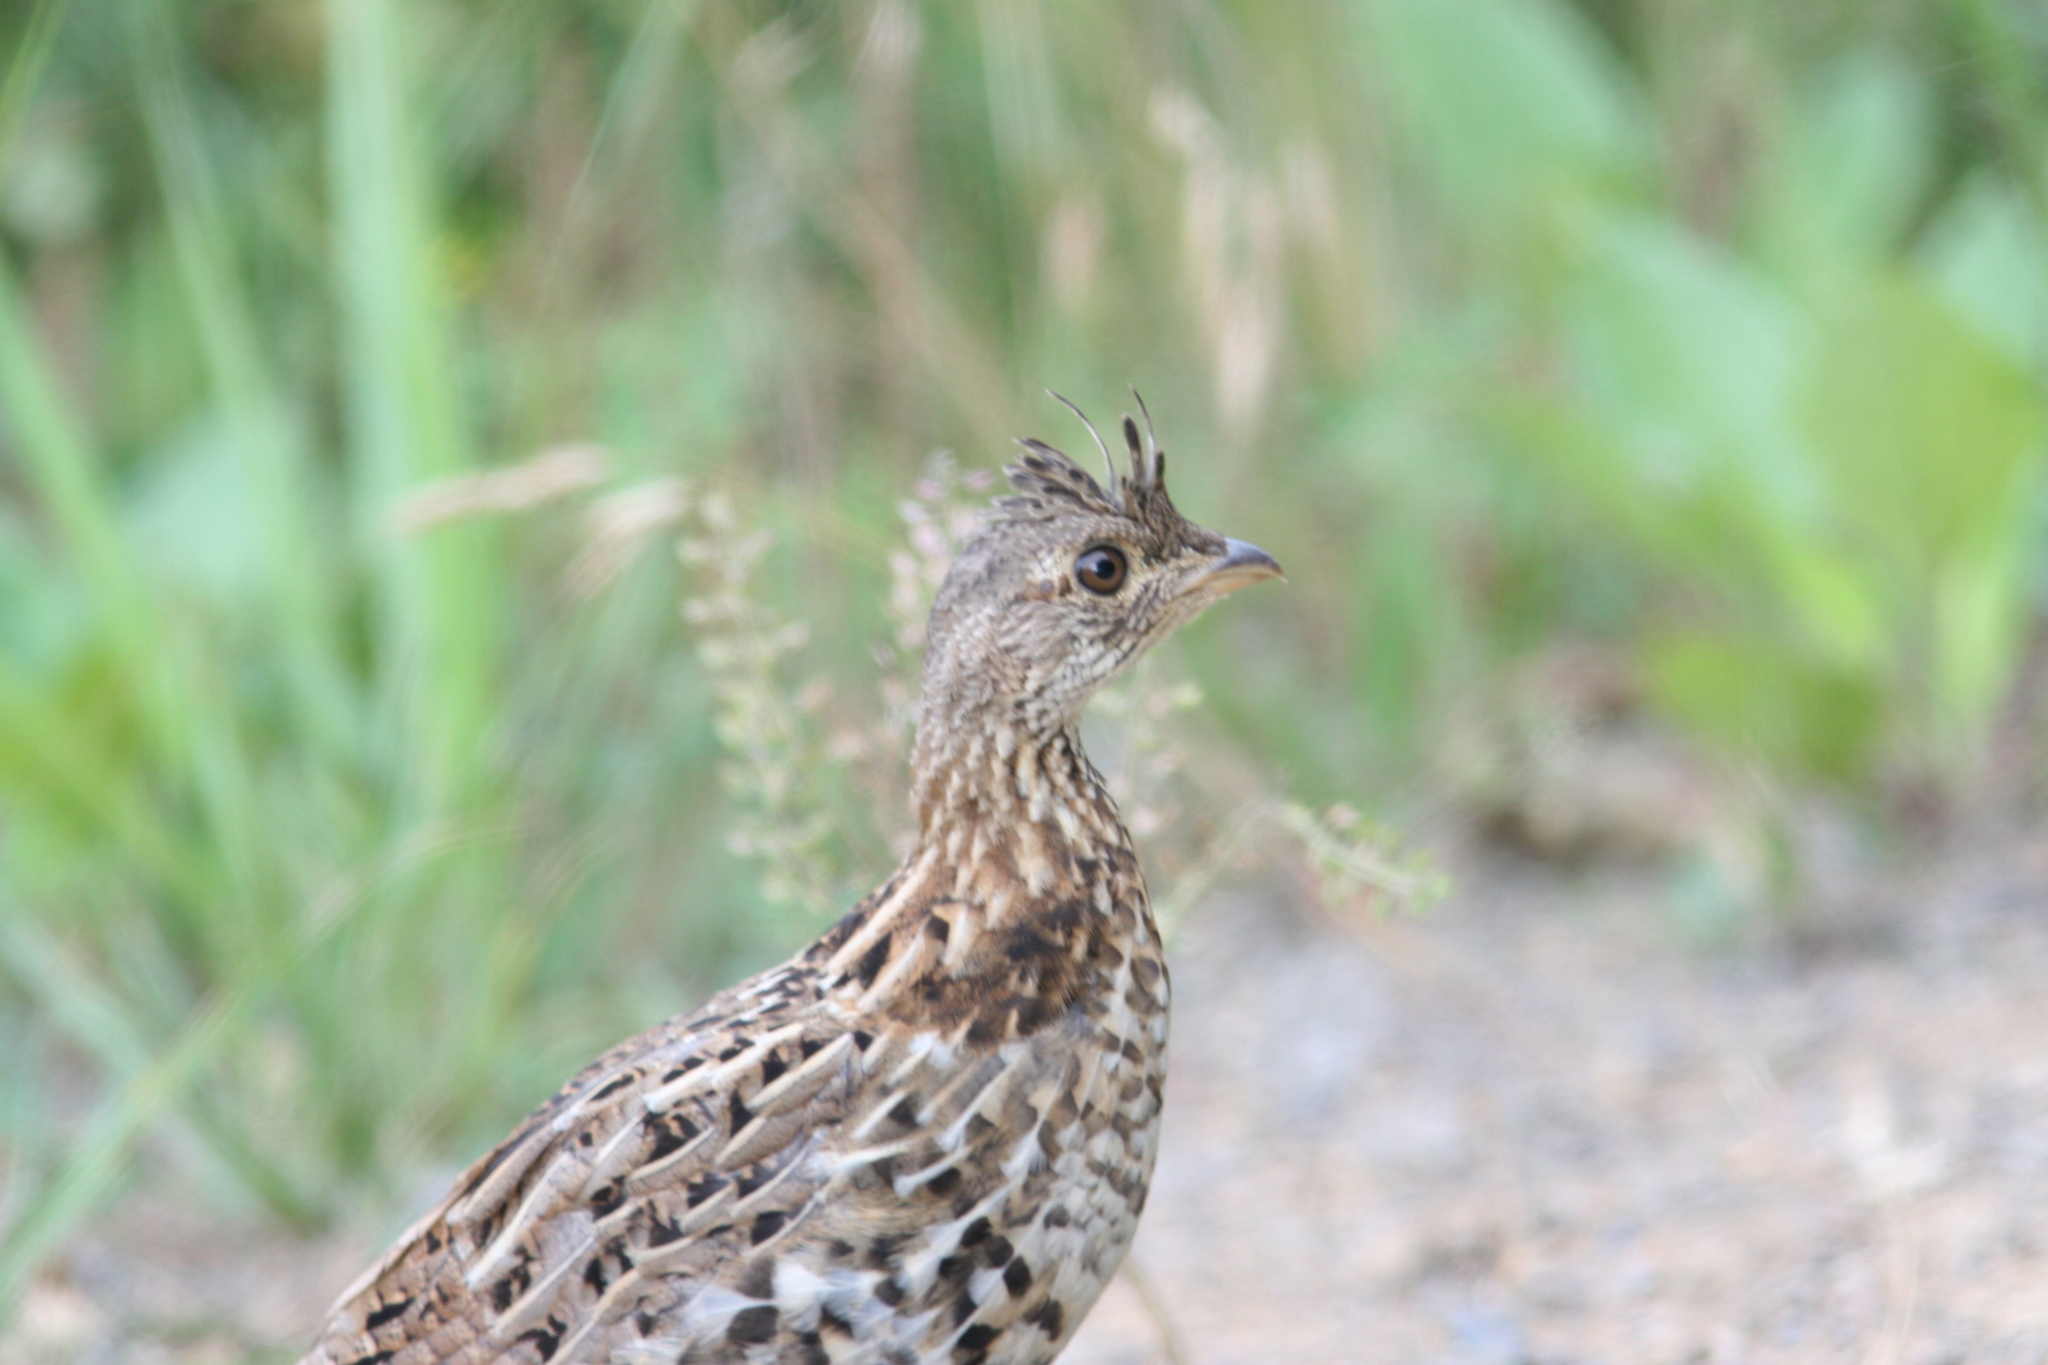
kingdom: Animalia
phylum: Chordata
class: Aves
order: Galliformes
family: Phasianidae
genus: Bonasa
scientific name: Bonasa umbellus
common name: Ruffed grouse
